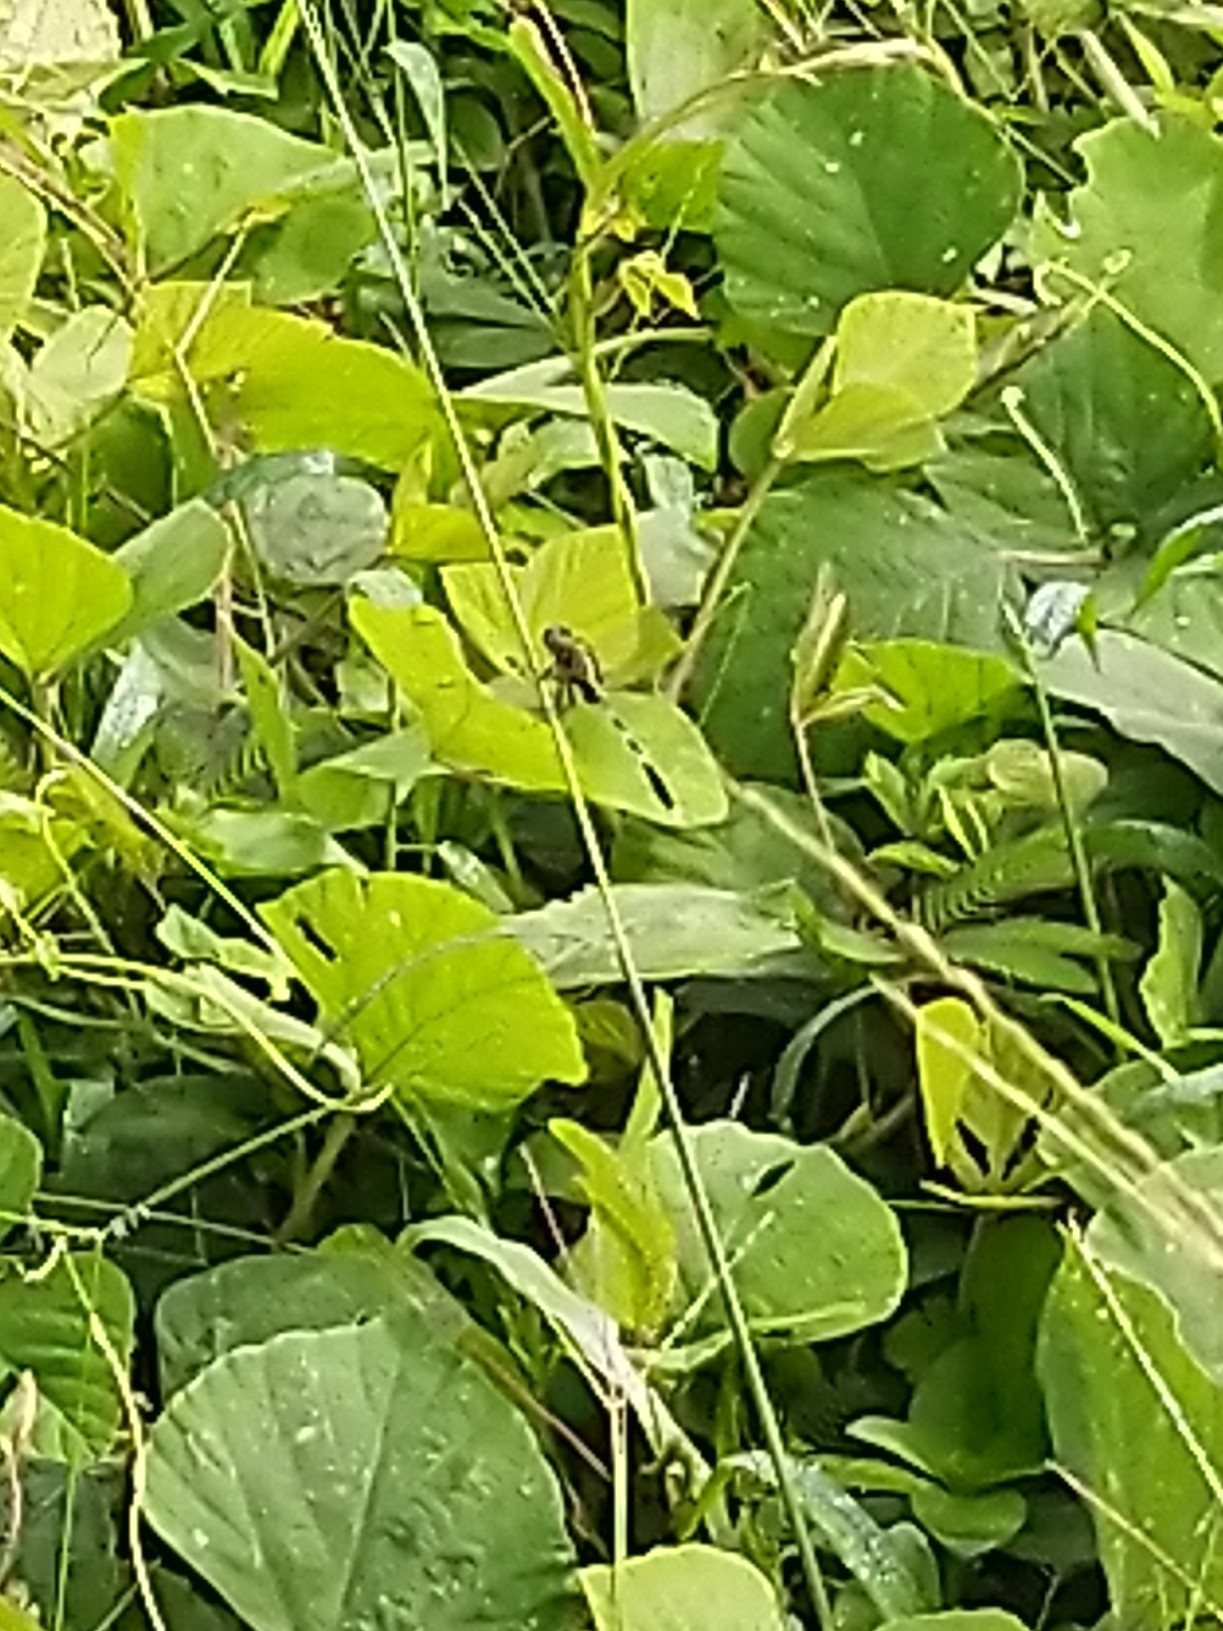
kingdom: Animalia
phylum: Arthropoda
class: Insecta
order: Odonata
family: Libellulidae
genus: Orthetrum
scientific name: Orthetrum sabina
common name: Slender skimmer
